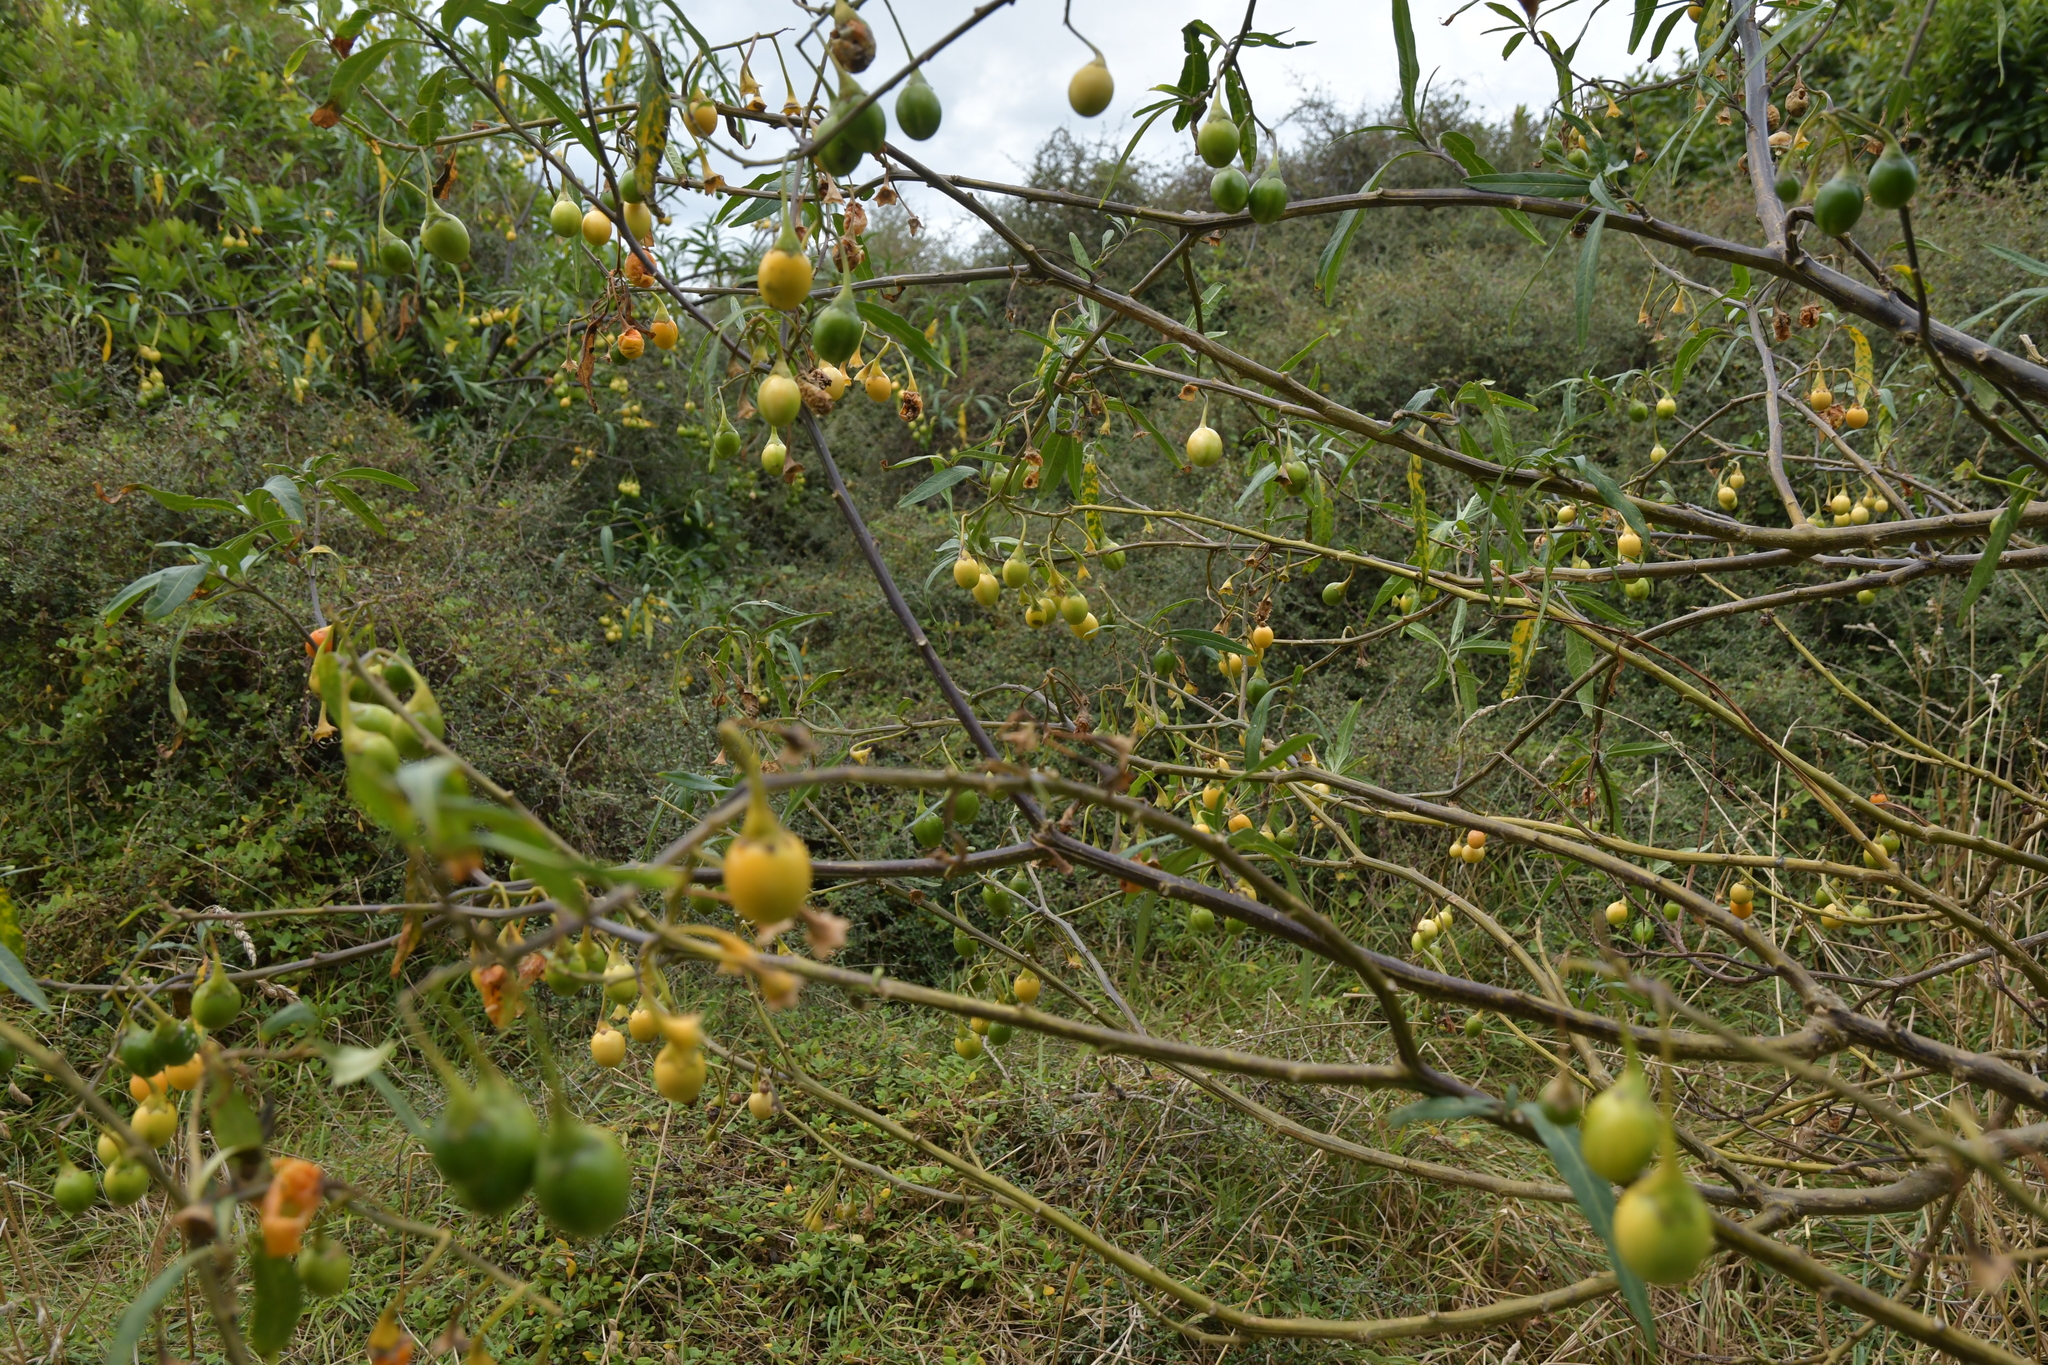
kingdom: Plantae
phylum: Tracheophyta
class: Magnoliopsida
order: Solanales
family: Solanaceae
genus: Solanum
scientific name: Solanum laciniatum
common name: Kangaroo-apple
